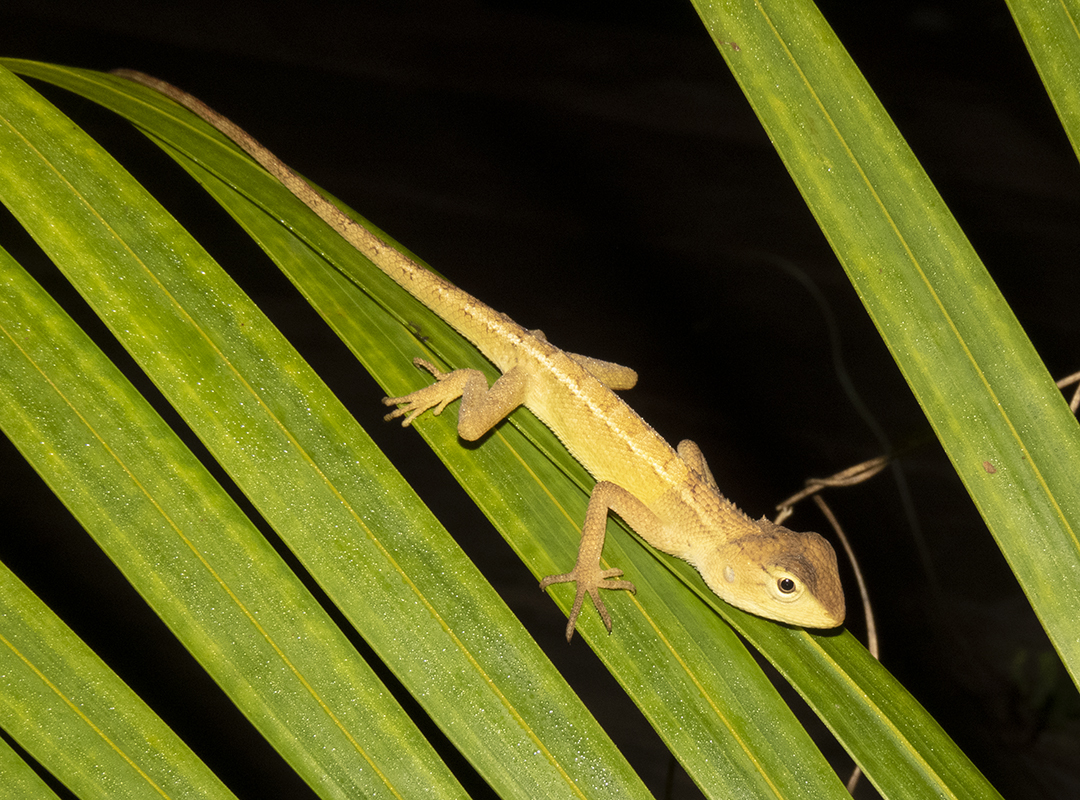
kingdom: Animalia
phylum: Chordata
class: Squamata
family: Agamidae
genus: Calotes
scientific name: Calotes versicolor
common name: Oriental garden lizard
